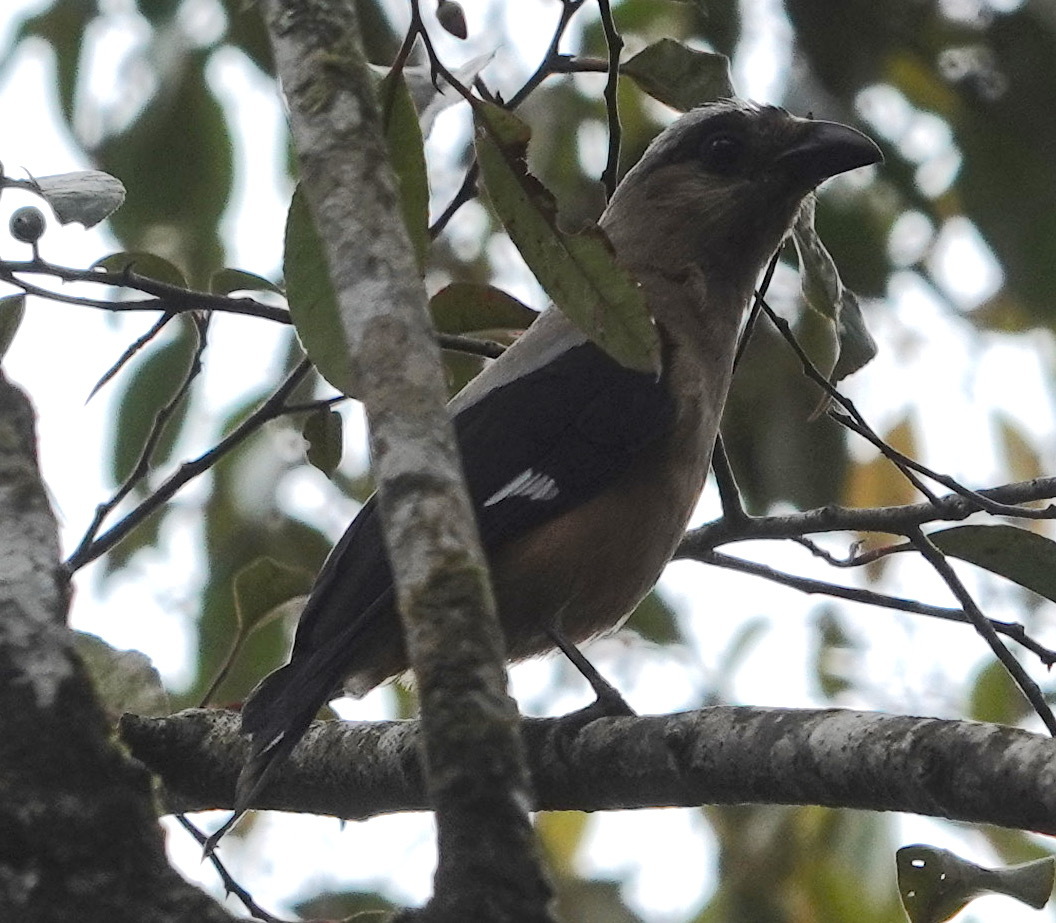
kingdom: Animalia
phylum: Chordata
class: Aves
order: Passeriformes
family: Corvidae
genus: Dendrocitta
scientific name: Dendrocitta cinerascens
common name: Bornean treepie
